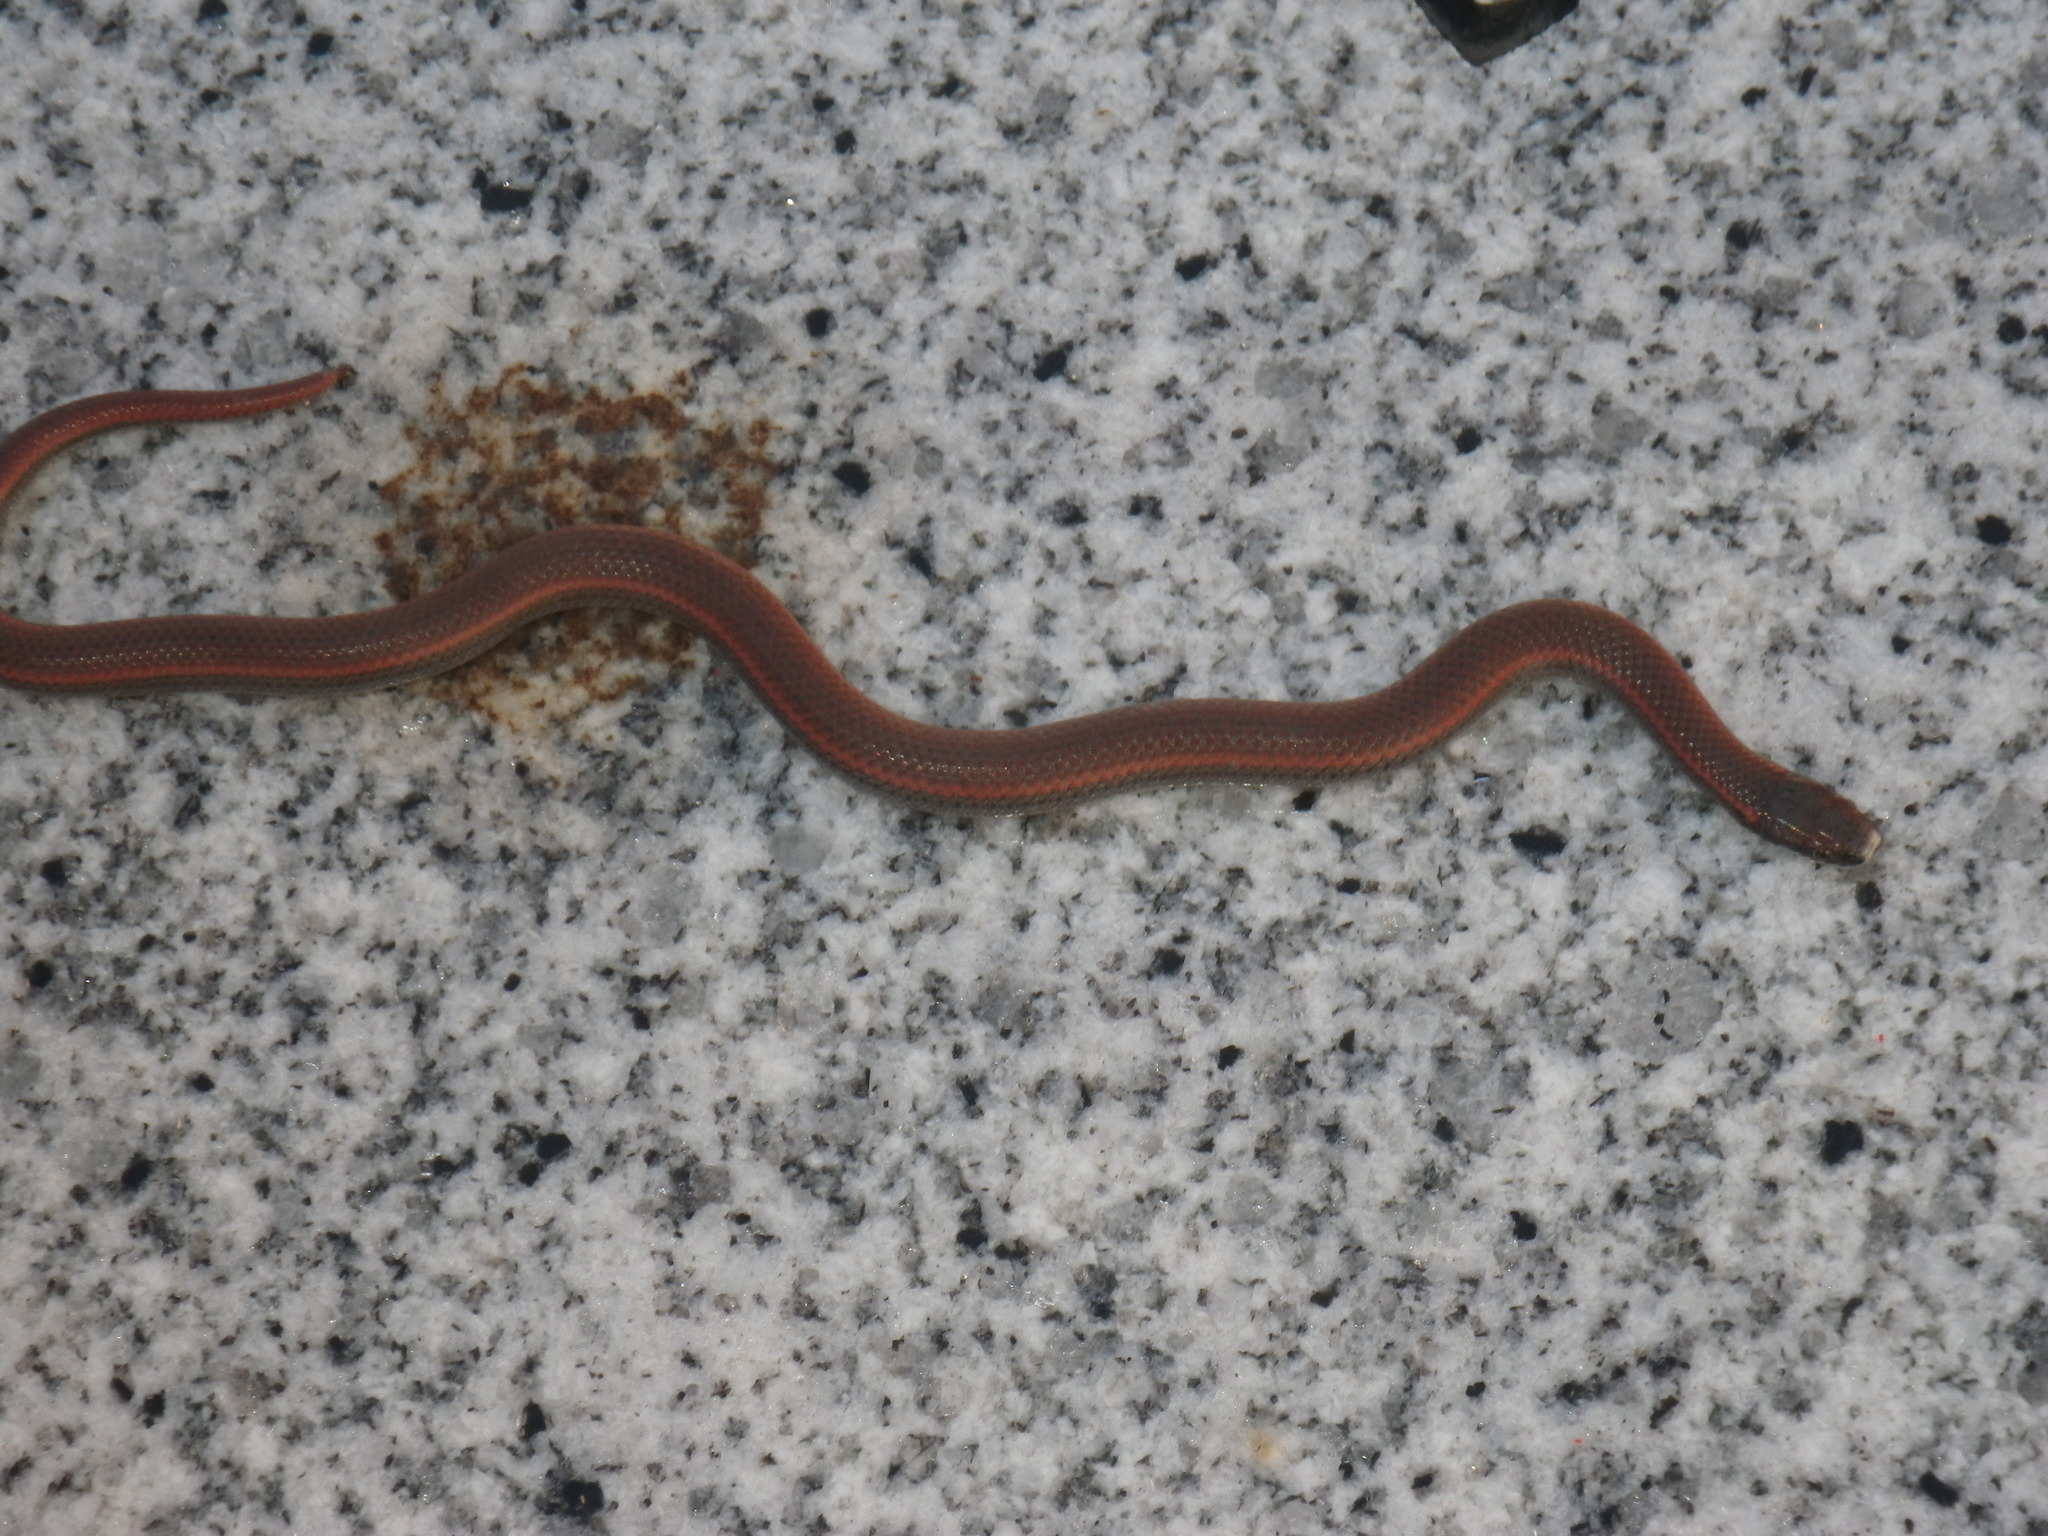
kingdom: Animalia
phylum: Chordata
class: Squamata
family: Colubridae
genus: Contia
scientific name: Contia tenuis
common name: Sharptail snake
